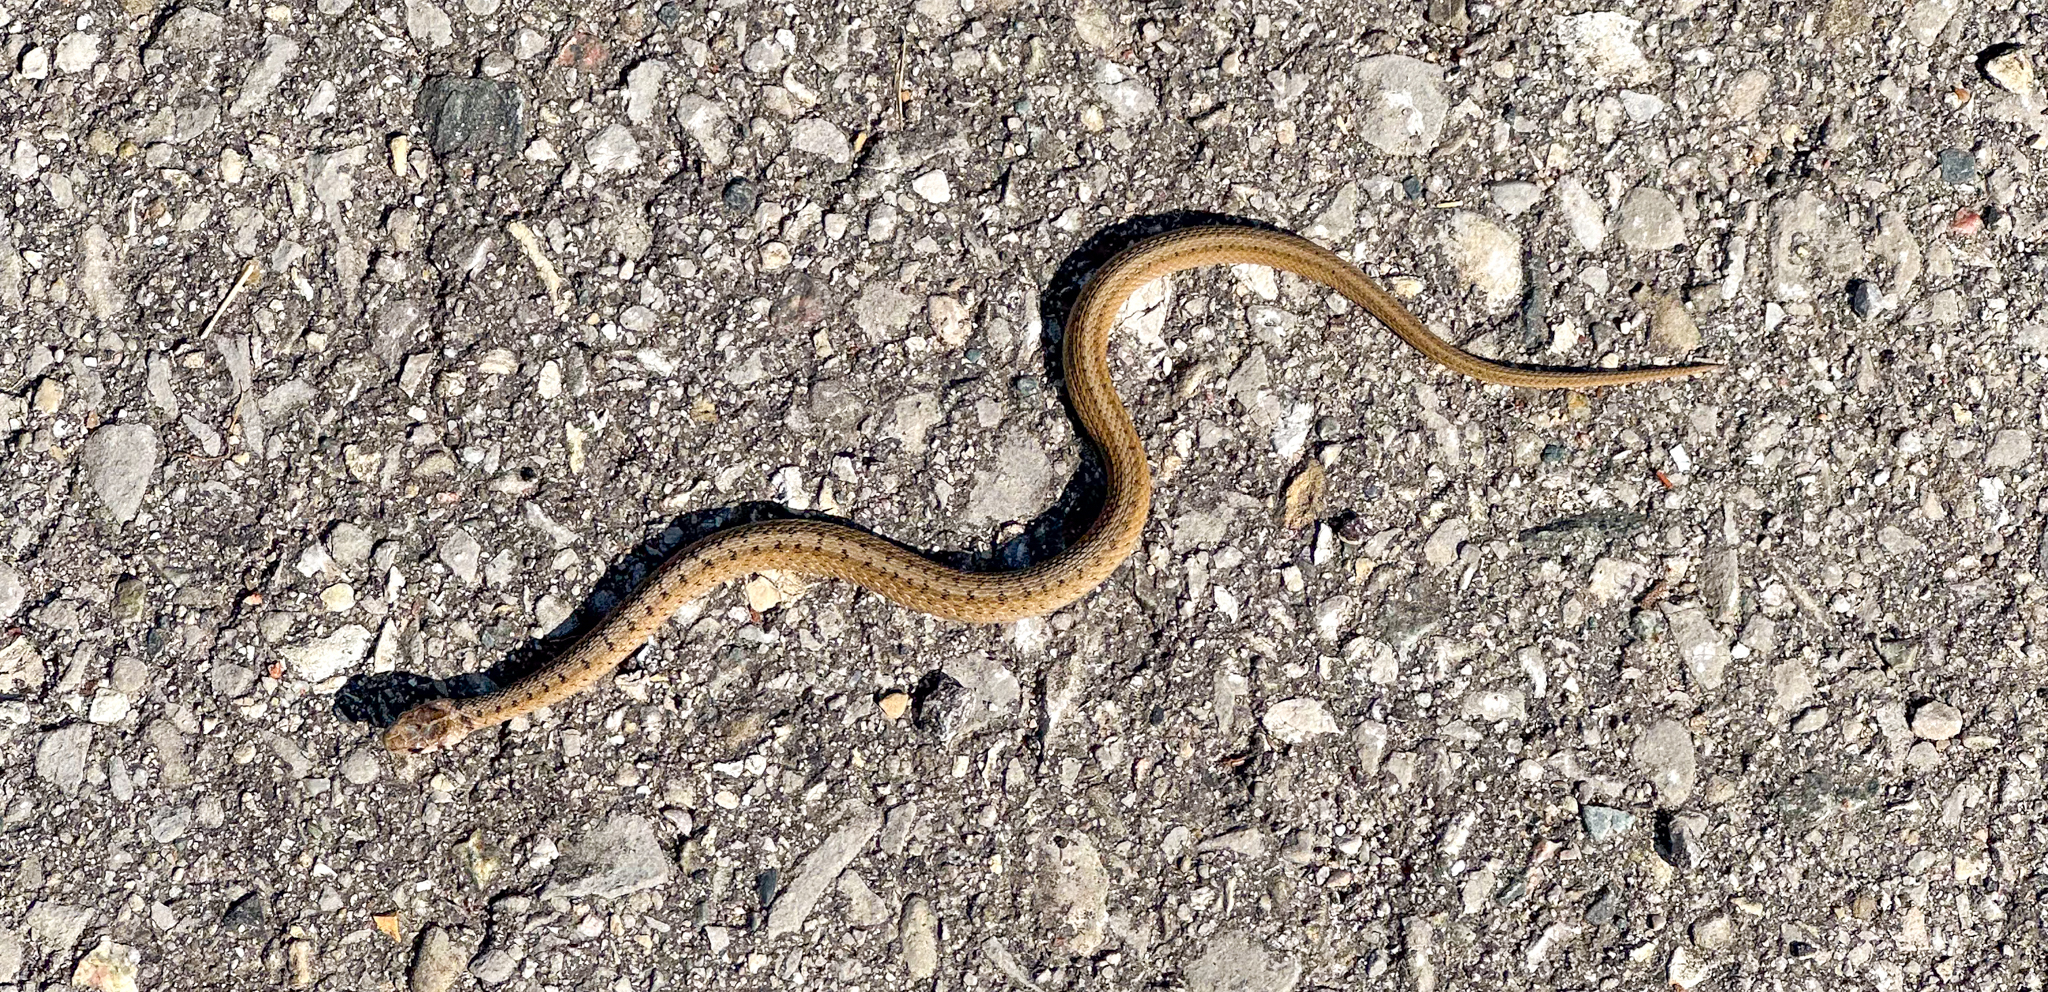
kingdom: Animalia
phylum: Chordata
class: Squamata
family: Colubridae
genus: Storeria
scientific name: Storeria dekayi
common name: (dekay’s) brown snake
